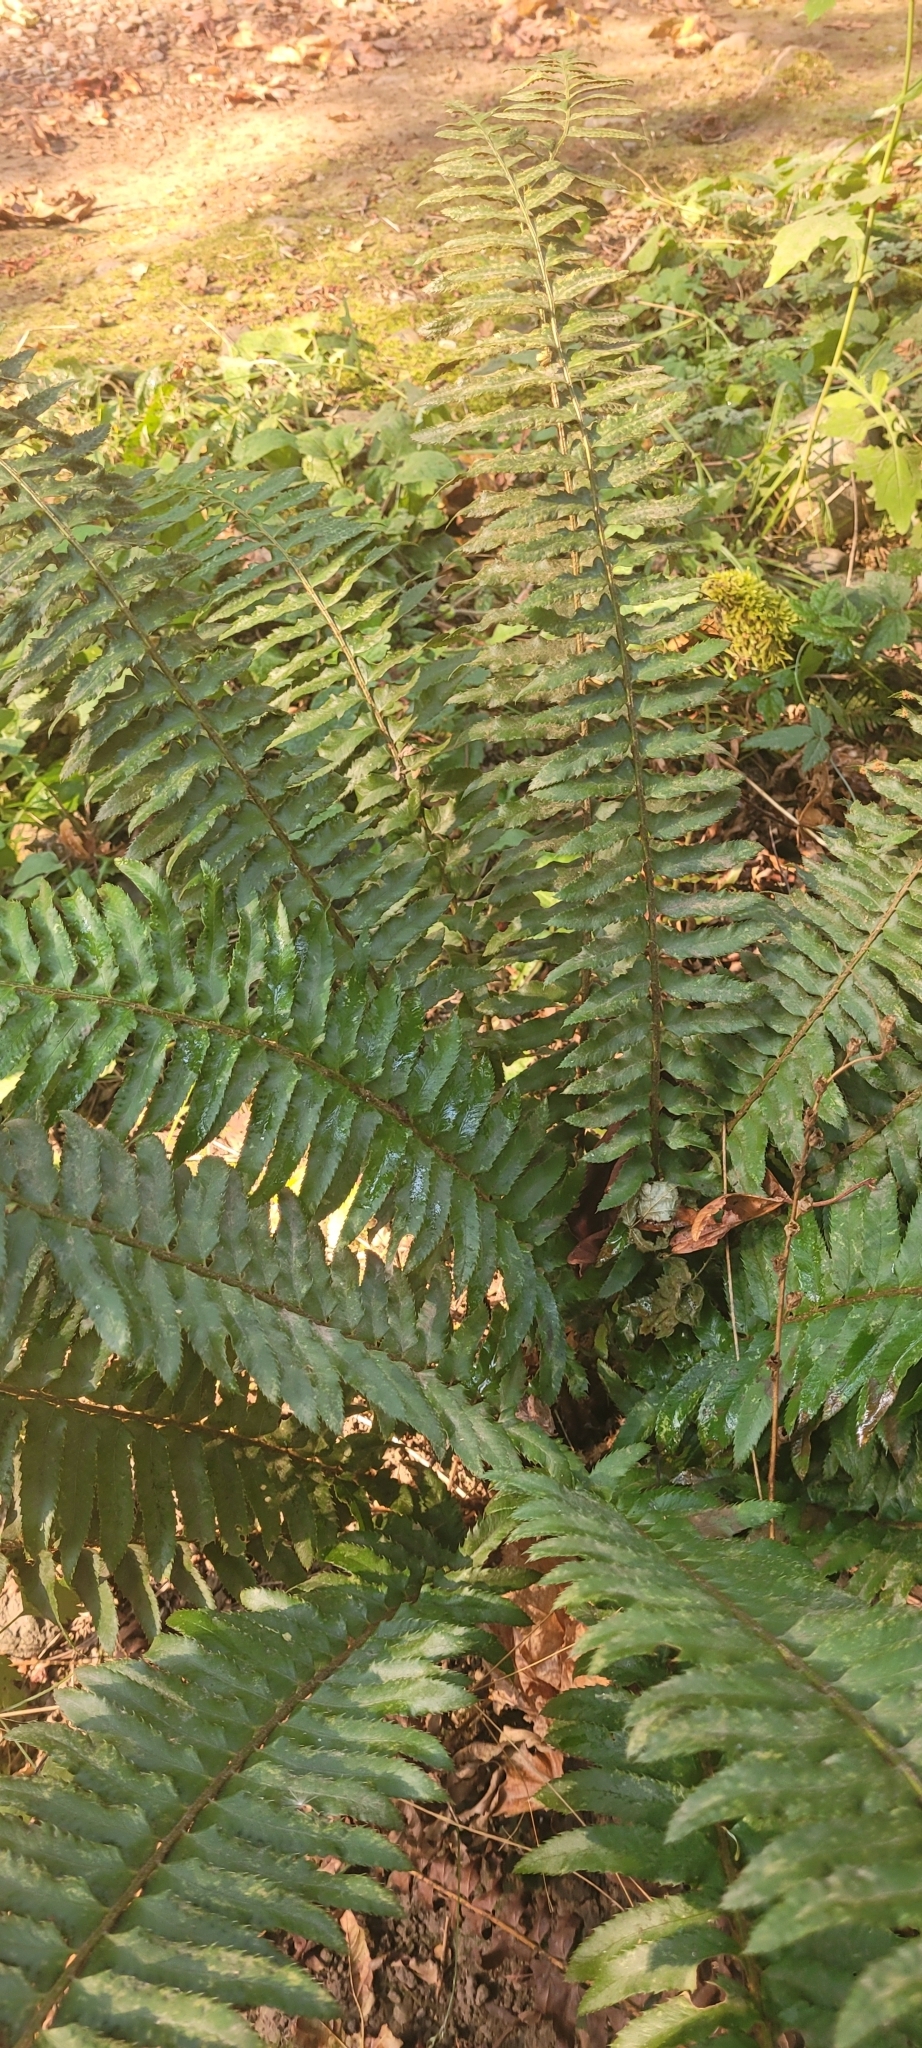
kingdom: Plantae
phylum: Tracheophyta
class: Polypodiopsida
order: Polypodiales
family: Dryopteridaceae
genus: Polystichum
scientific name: Polystichum munitum
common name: Western sword-fern
